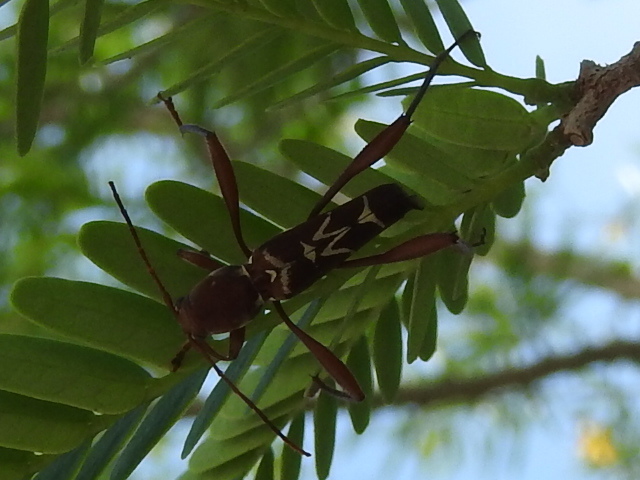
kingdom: Animalia
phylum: Arthropoda
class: Insecta
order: Coleoptera
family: Cerambycidae
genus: Neoclytus
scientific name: Neoclytus cacicus
